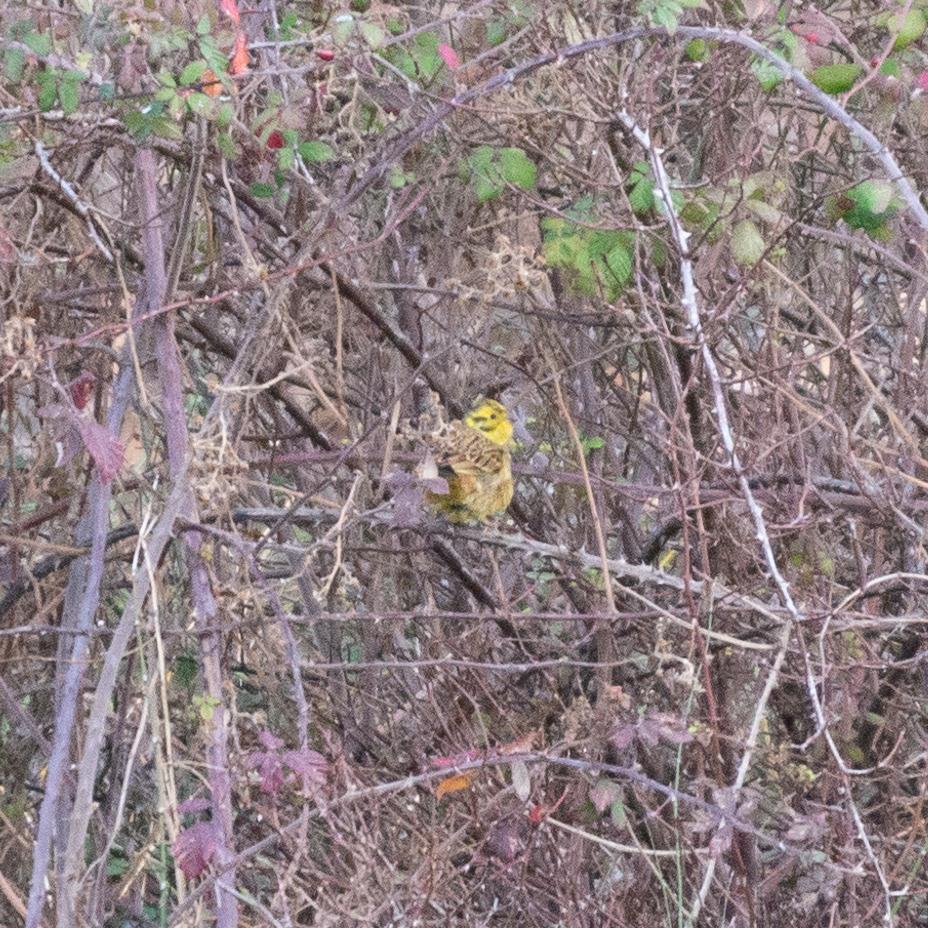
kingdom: Animalia
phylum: Chordata
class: Aves
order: Passeriformes
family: Emberizidae
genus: Emberiza
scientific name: Emberiza citrinella
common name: Yellowhammer
